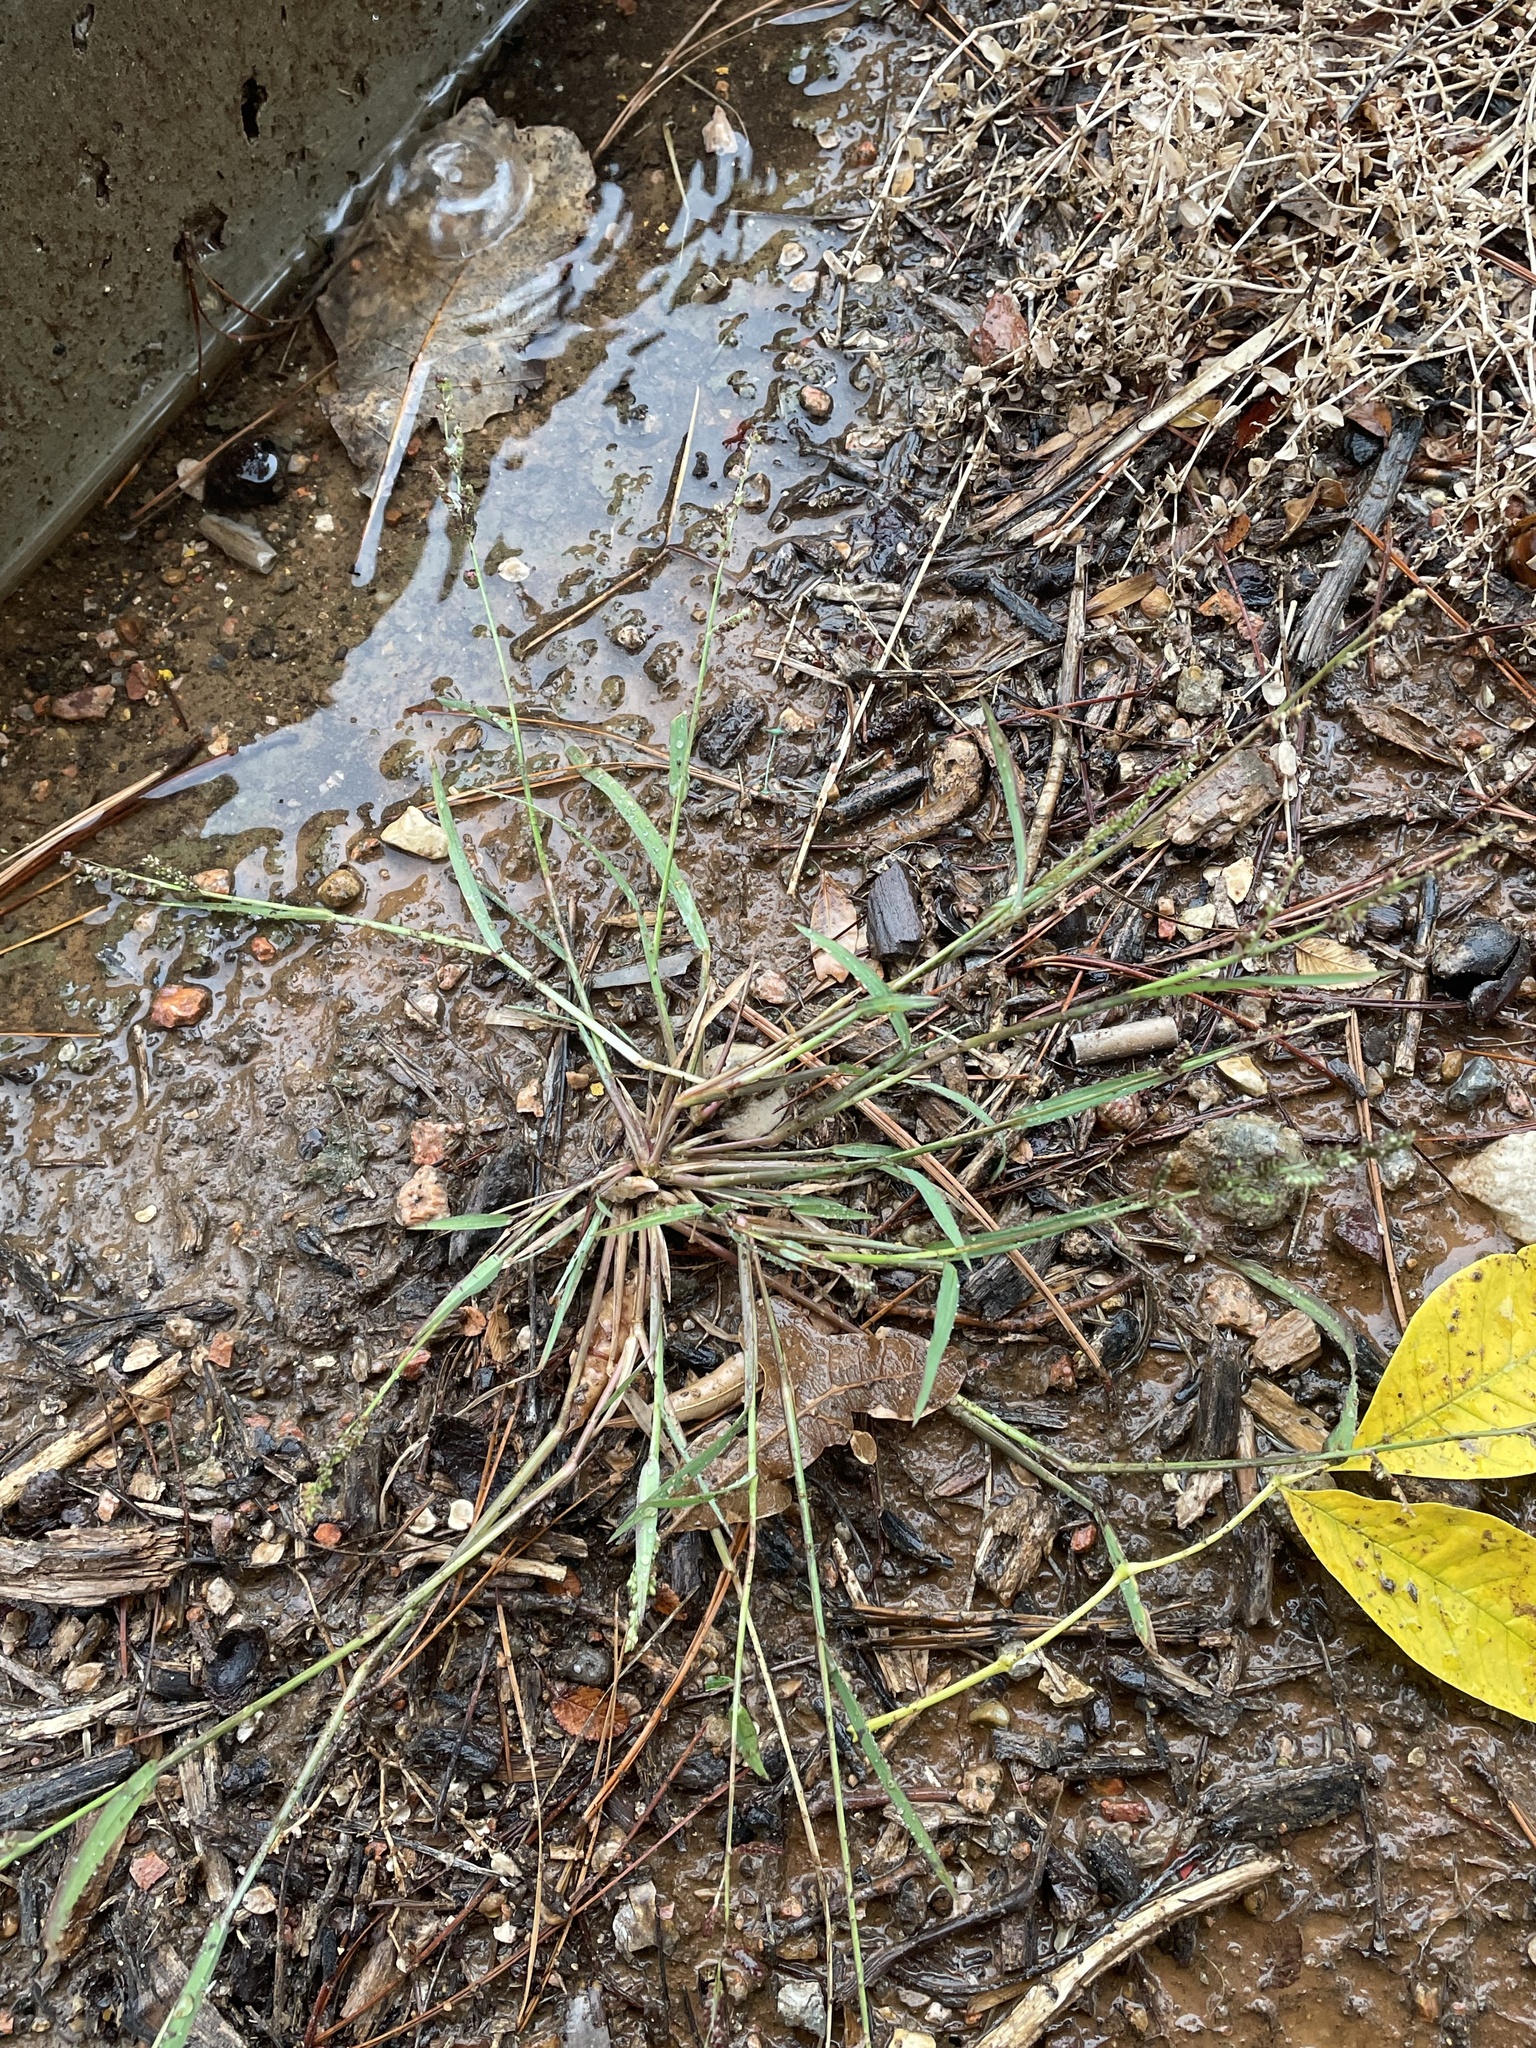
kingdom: Plantae
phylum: Tracheophyta
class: Liliopsida
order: Poales
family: Poaceae
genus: Echinochloa
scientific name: Echinochloa colonum
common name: Jungle rice
